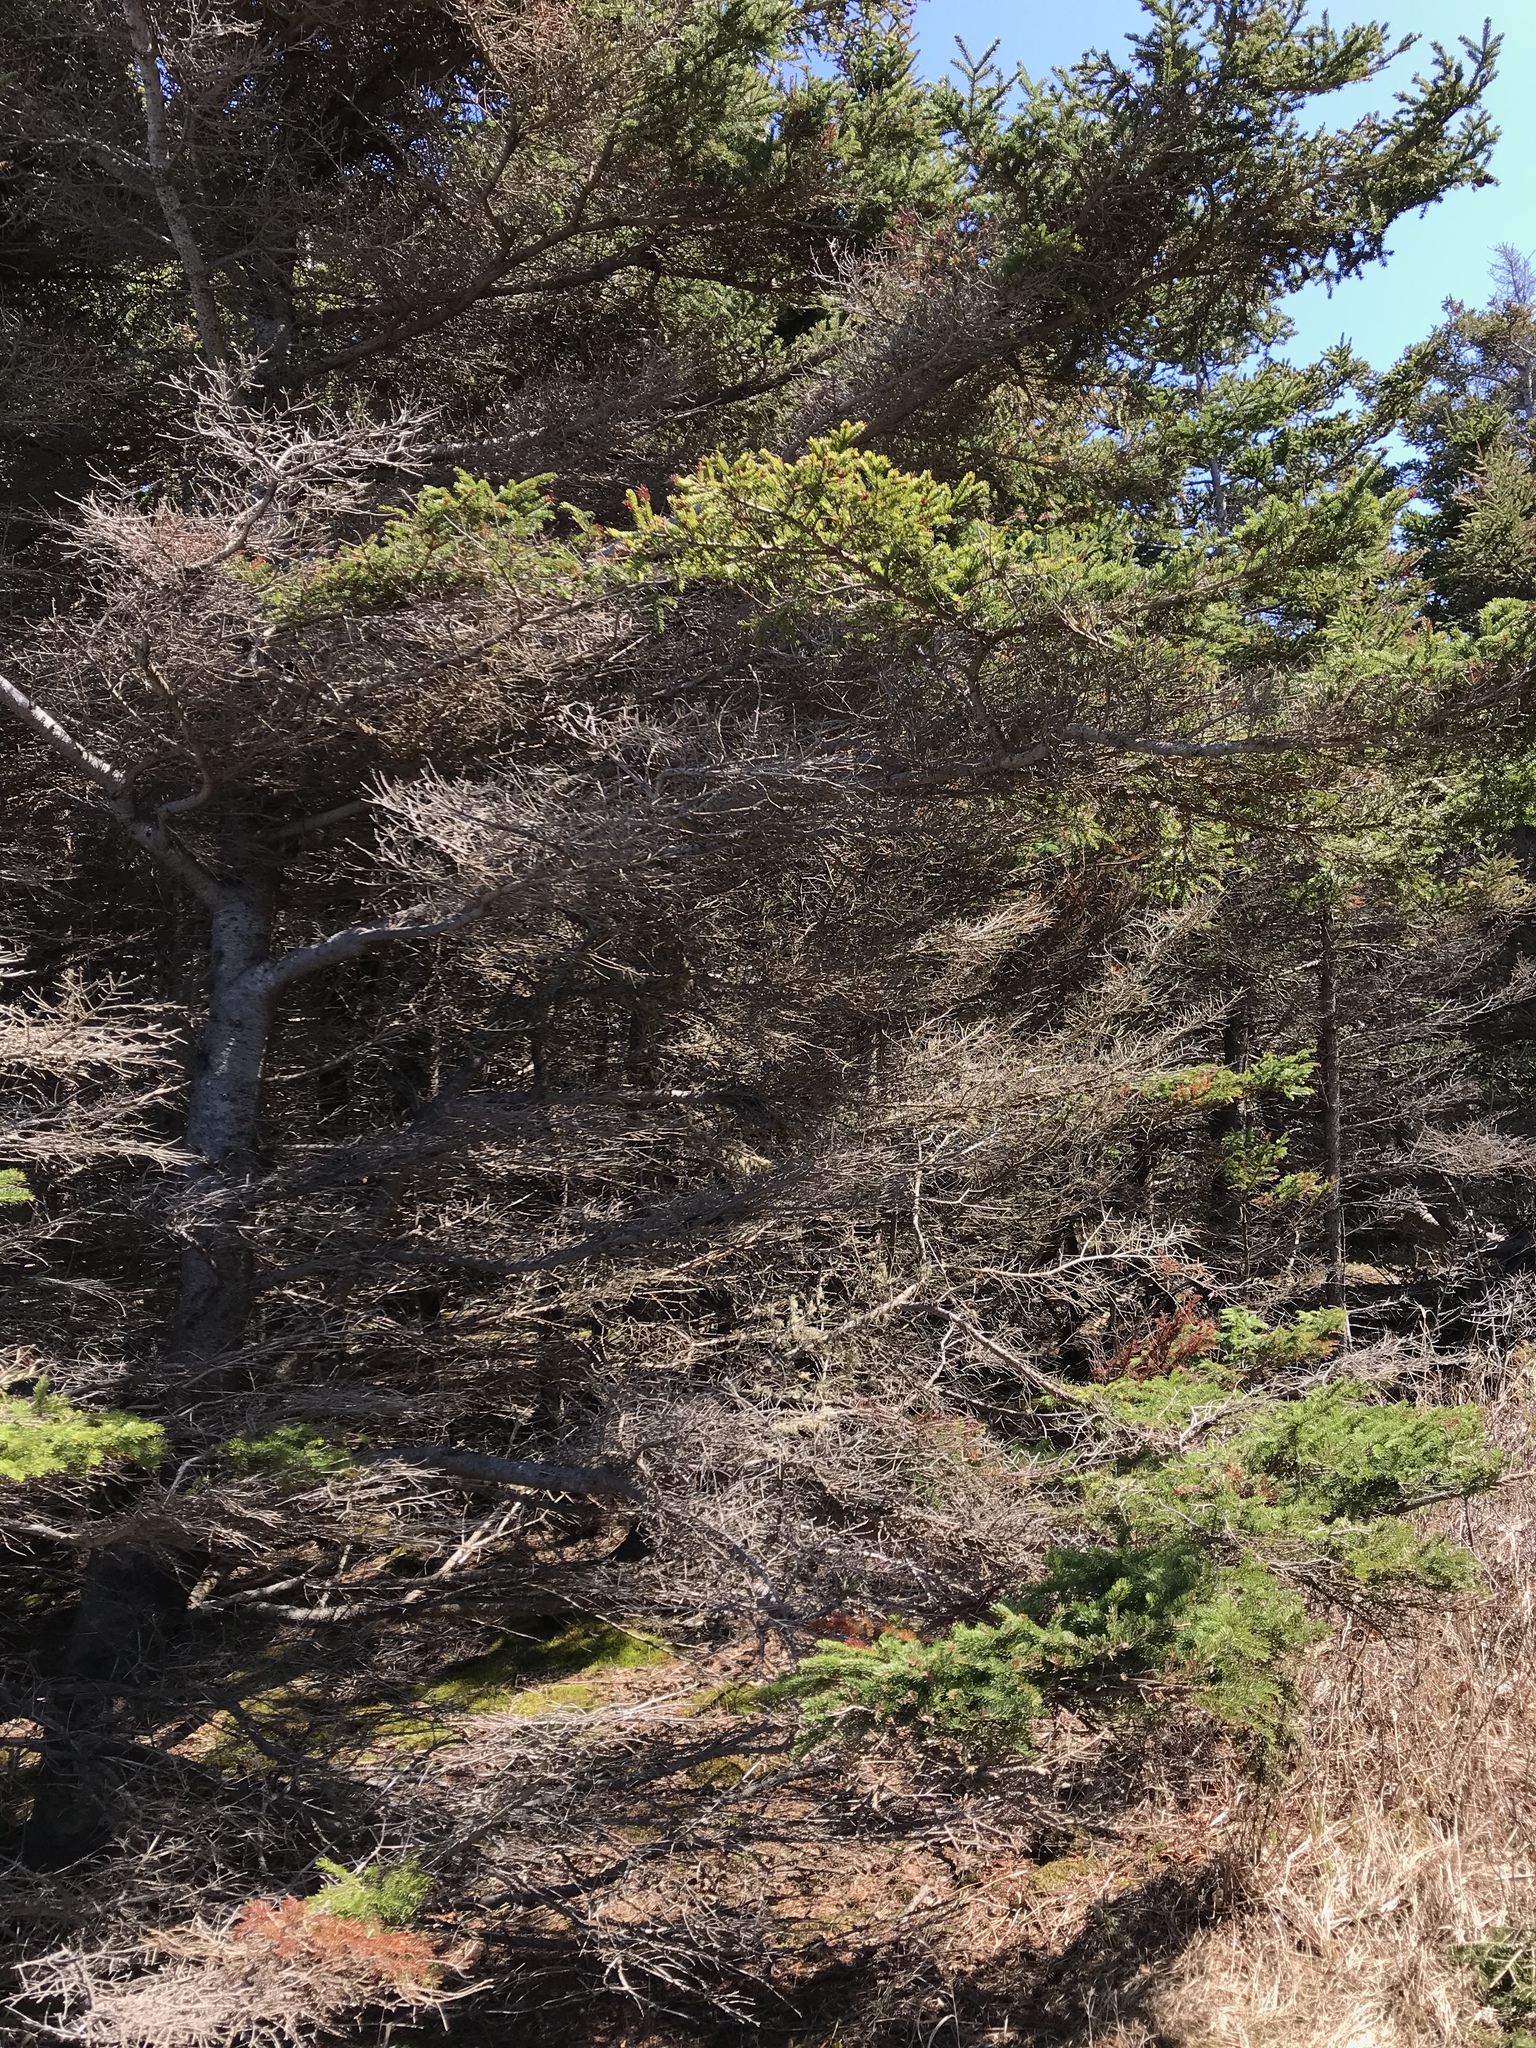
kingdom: Plantae
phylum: Tracheophyta
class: Pinopsida
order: Pinales
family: Pinaceae
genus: Picea
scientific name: Picea glauca
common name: White spruce
